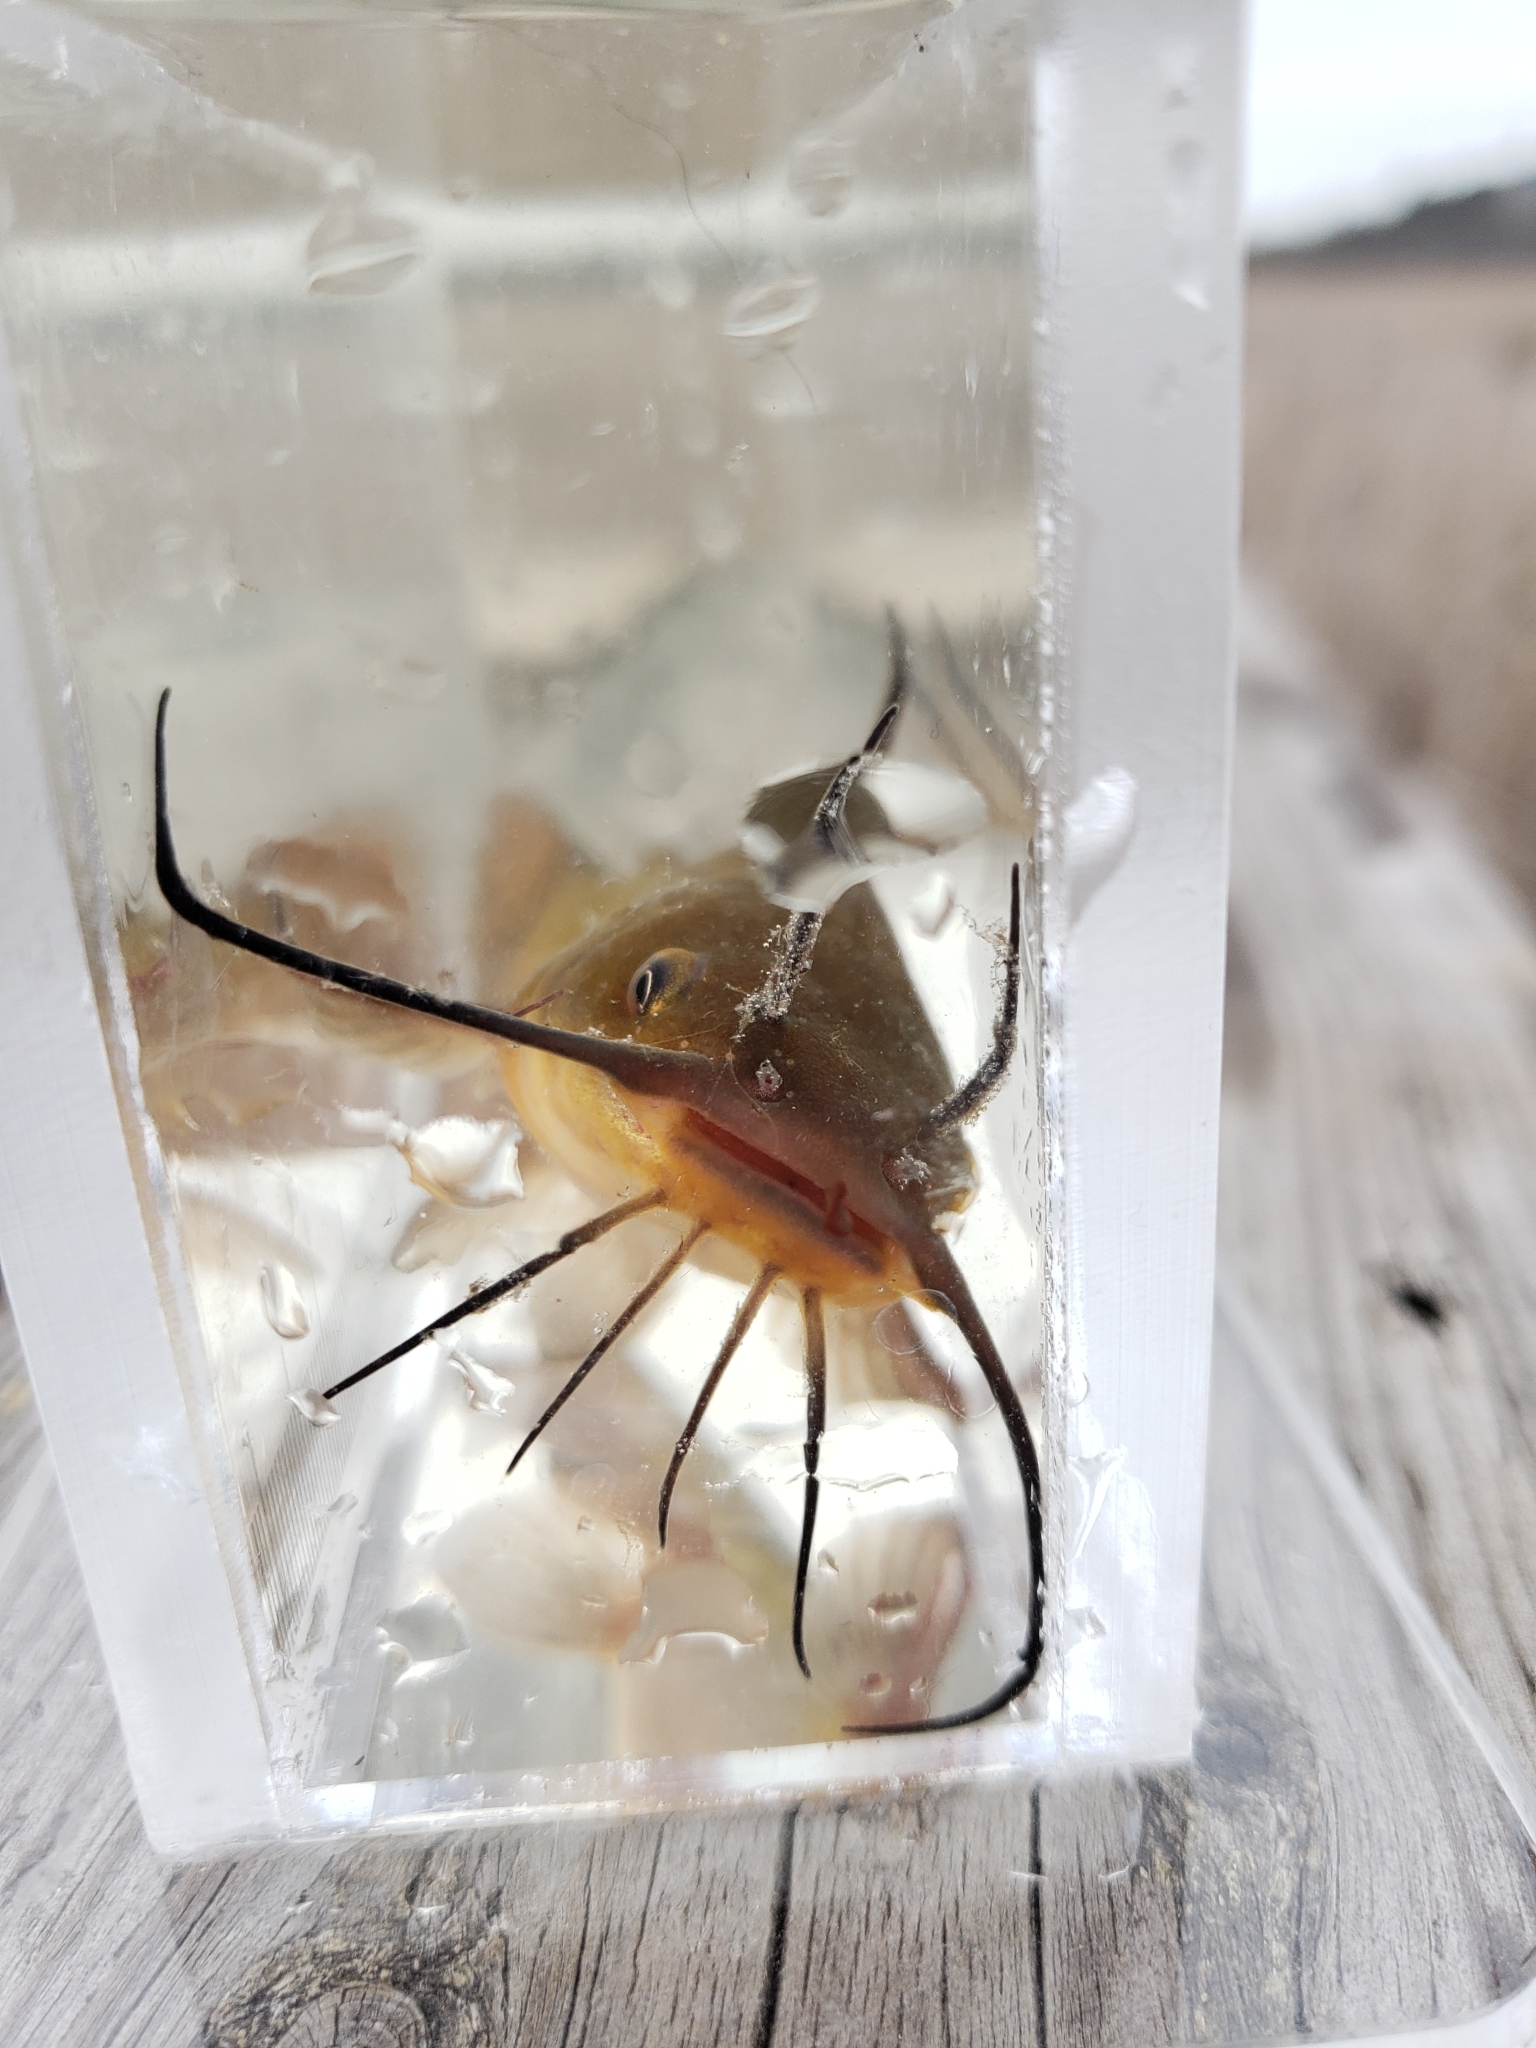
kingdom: Animalia
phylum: Chordata
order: Siluriformes
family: Ictaluridae
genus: Ameiurus
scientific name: Ameiurus nebulosus
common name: Brown bullhead
